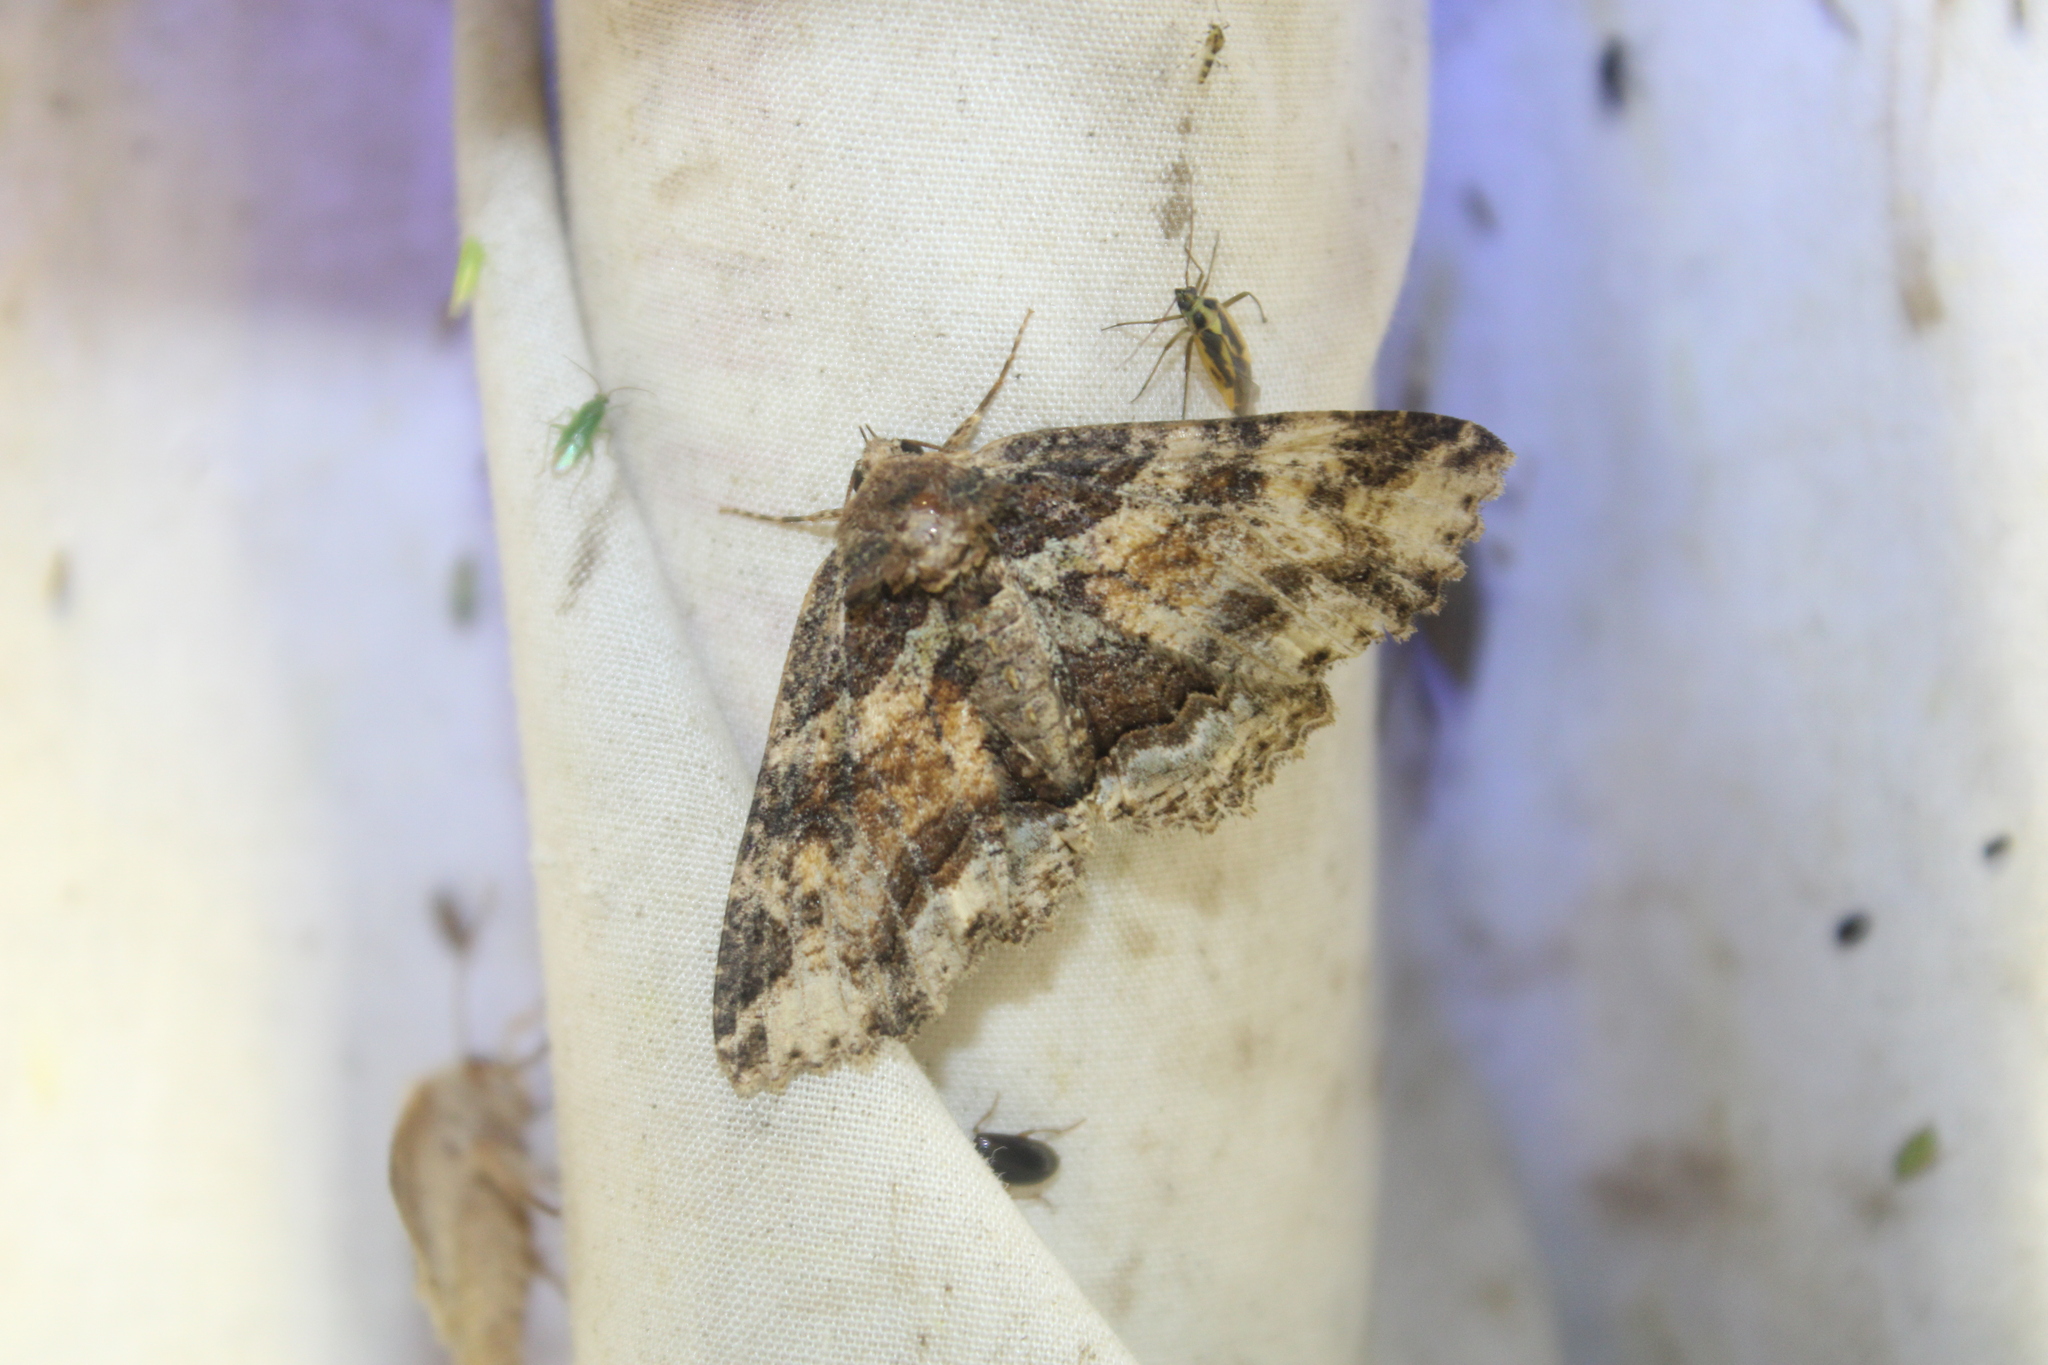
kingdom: Animalia
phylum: Arthropoda
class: Insecta
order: Lepidoptera
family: Erebidae
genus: Zale
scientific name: Zale minerea
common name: Colorful zale moth
